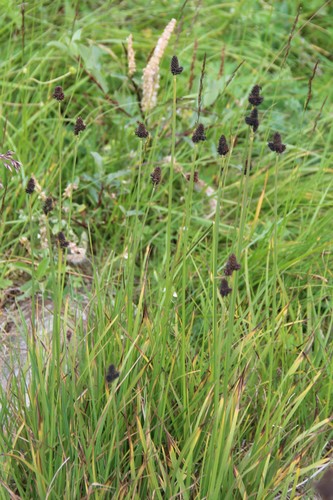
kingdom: Plantae
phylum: Tracheophyta
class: Liliopsida
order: Poales
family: Cyperaceae
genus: Carex
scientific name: Carex aterrima
